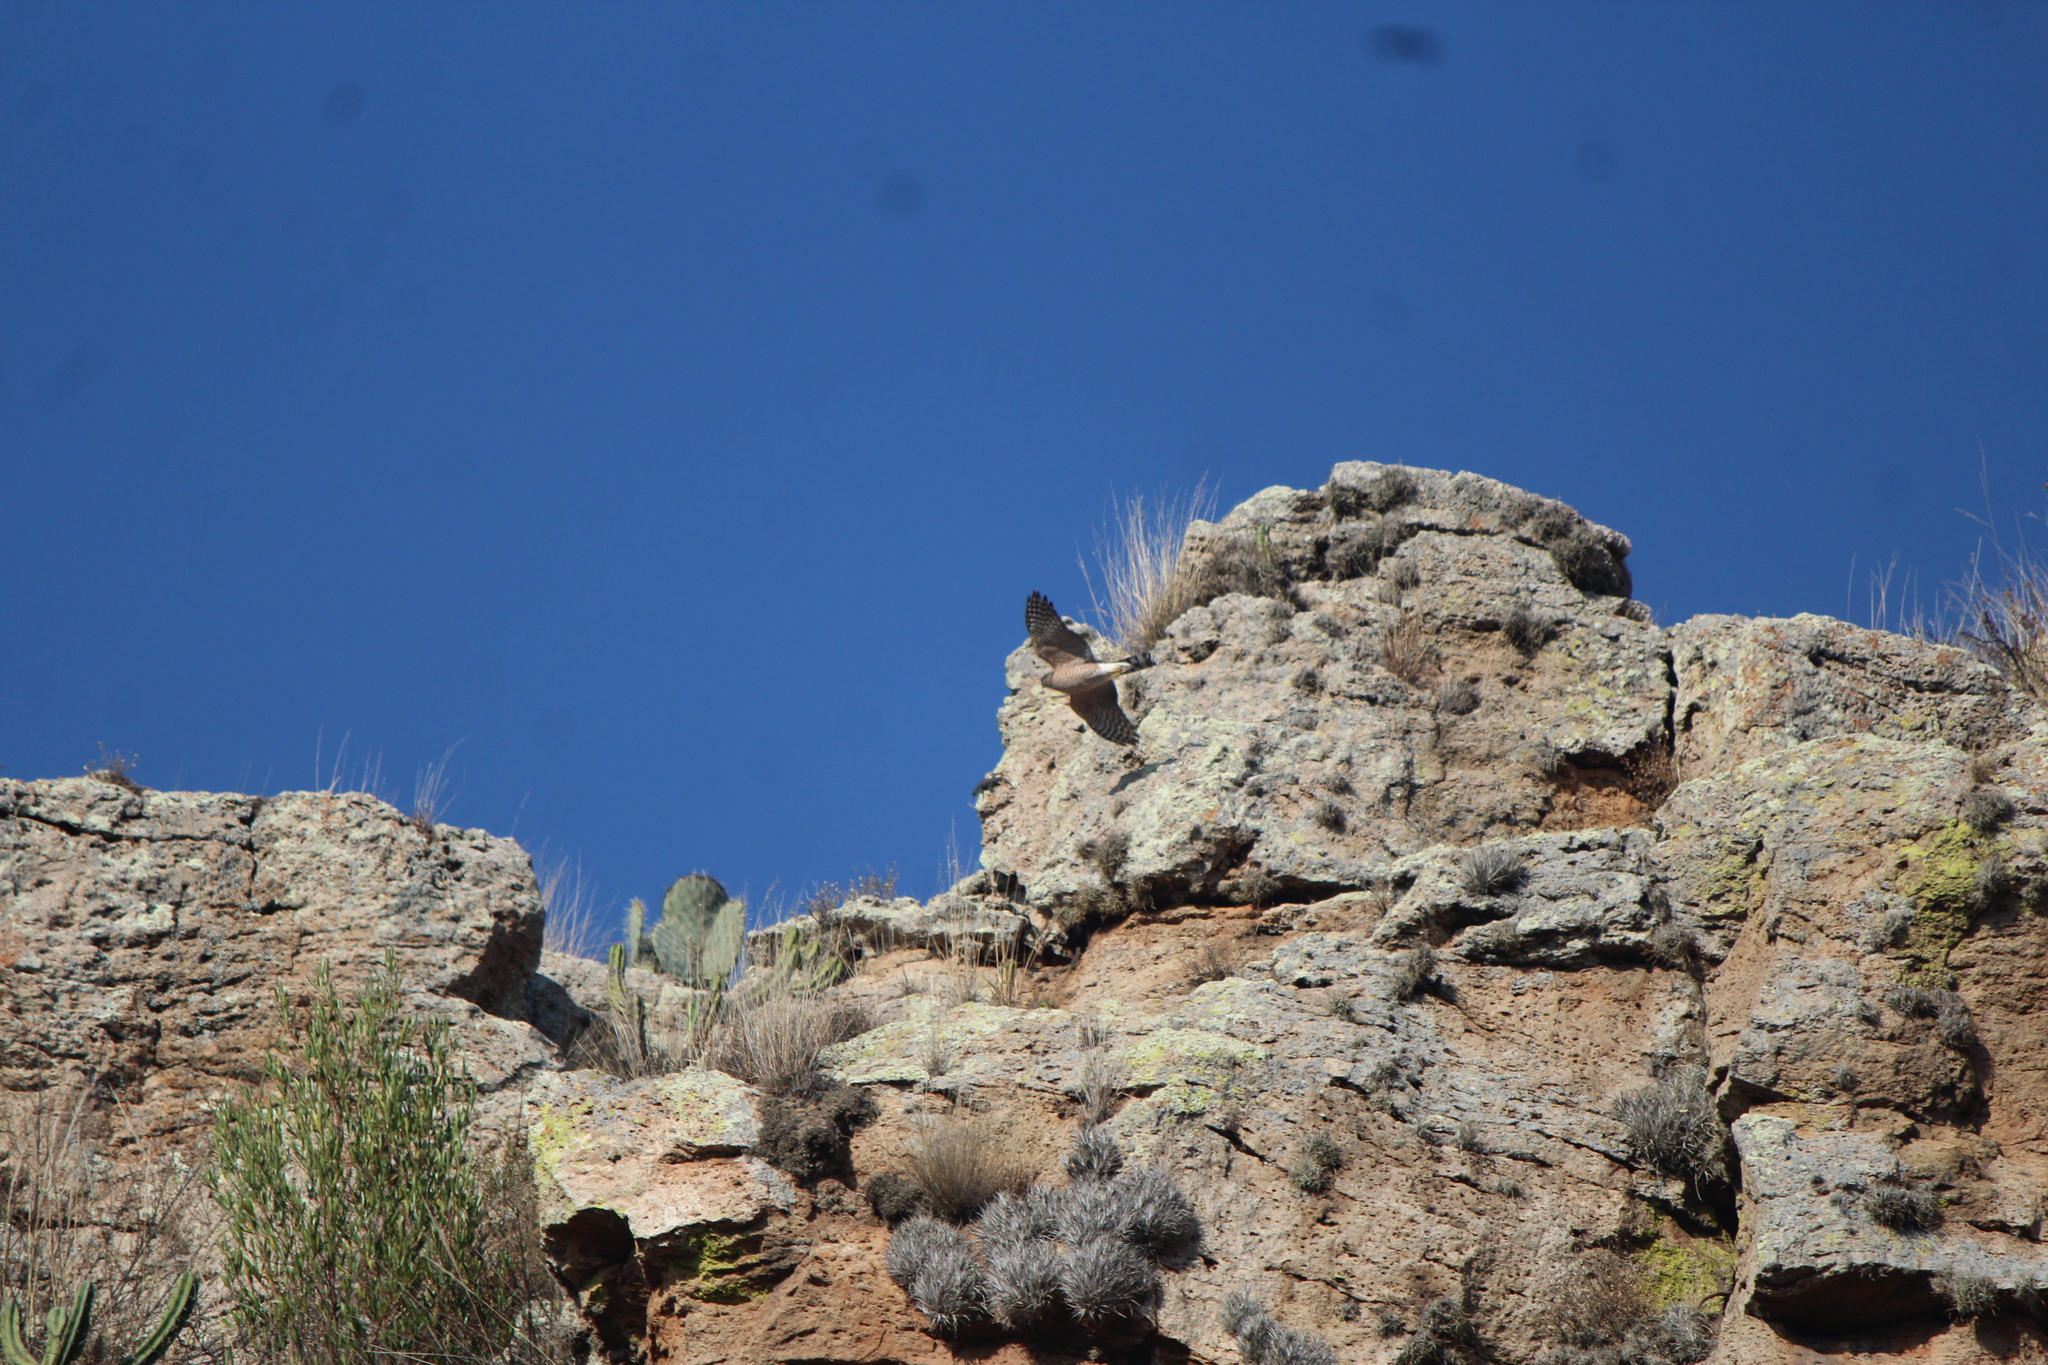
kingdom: Animalia
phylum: Chordata
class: Aves
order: Accipitriformes
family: Accipitridae
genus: Accipiter
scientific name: Accipiter cooperii
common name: Cooper's hawk
